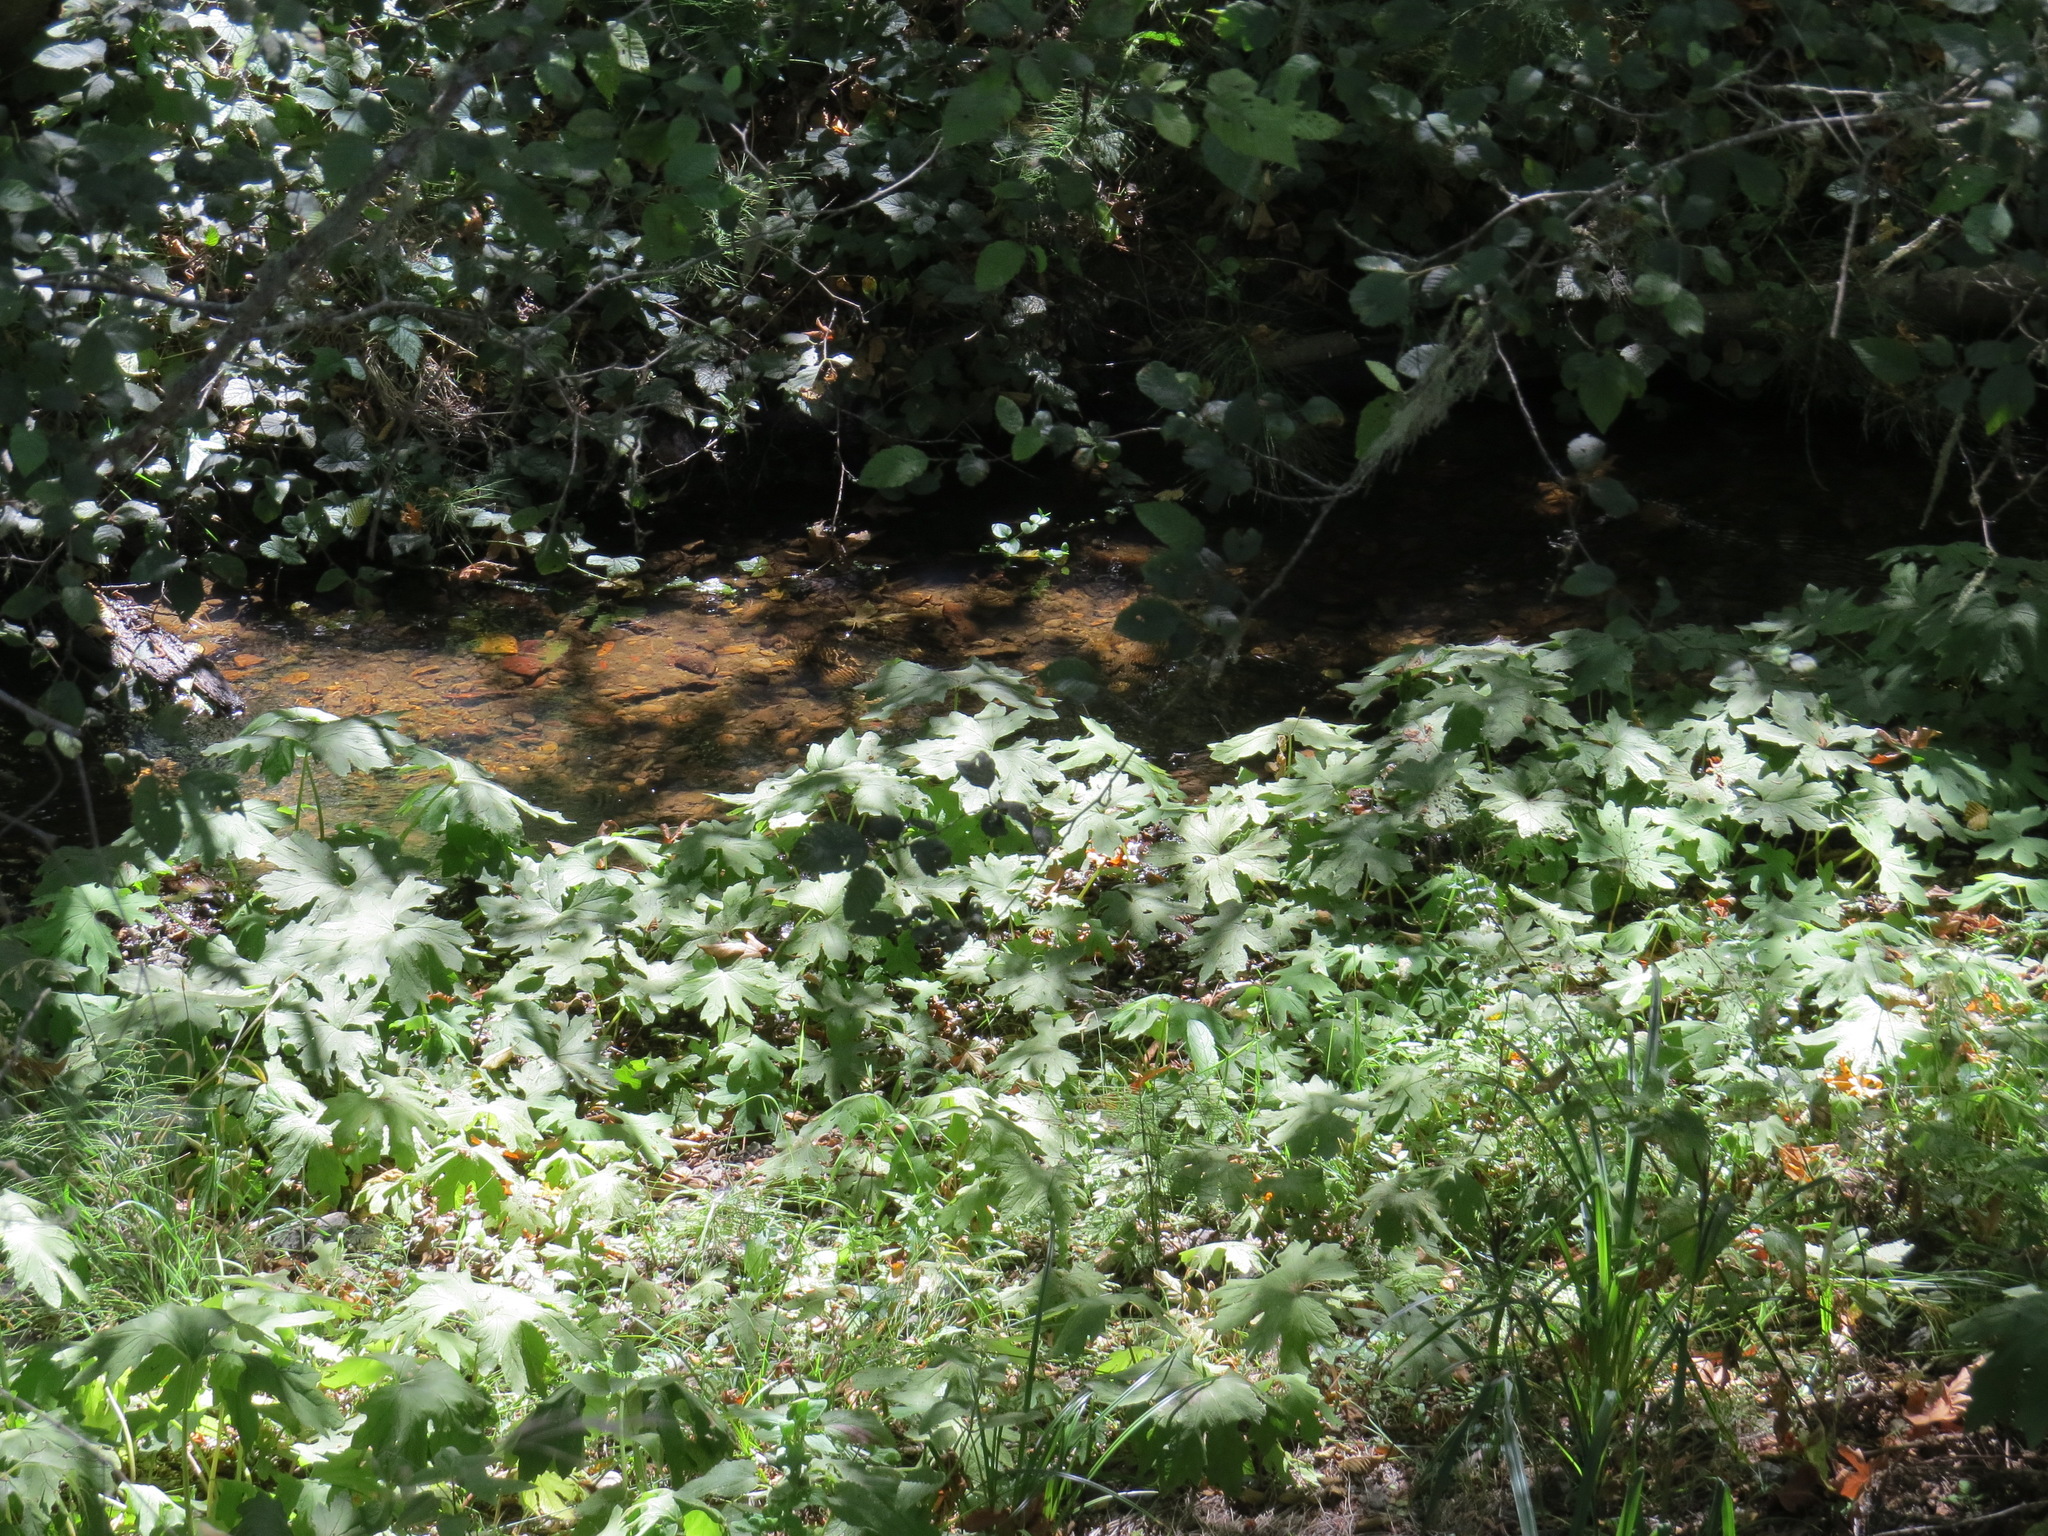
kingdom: Plantae
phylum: Tracheophyta
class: Magnoliopsida
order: Asterales
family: Asteraceae
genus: Petasites
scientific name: Petasites frigidus
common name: Arctic butterbur
